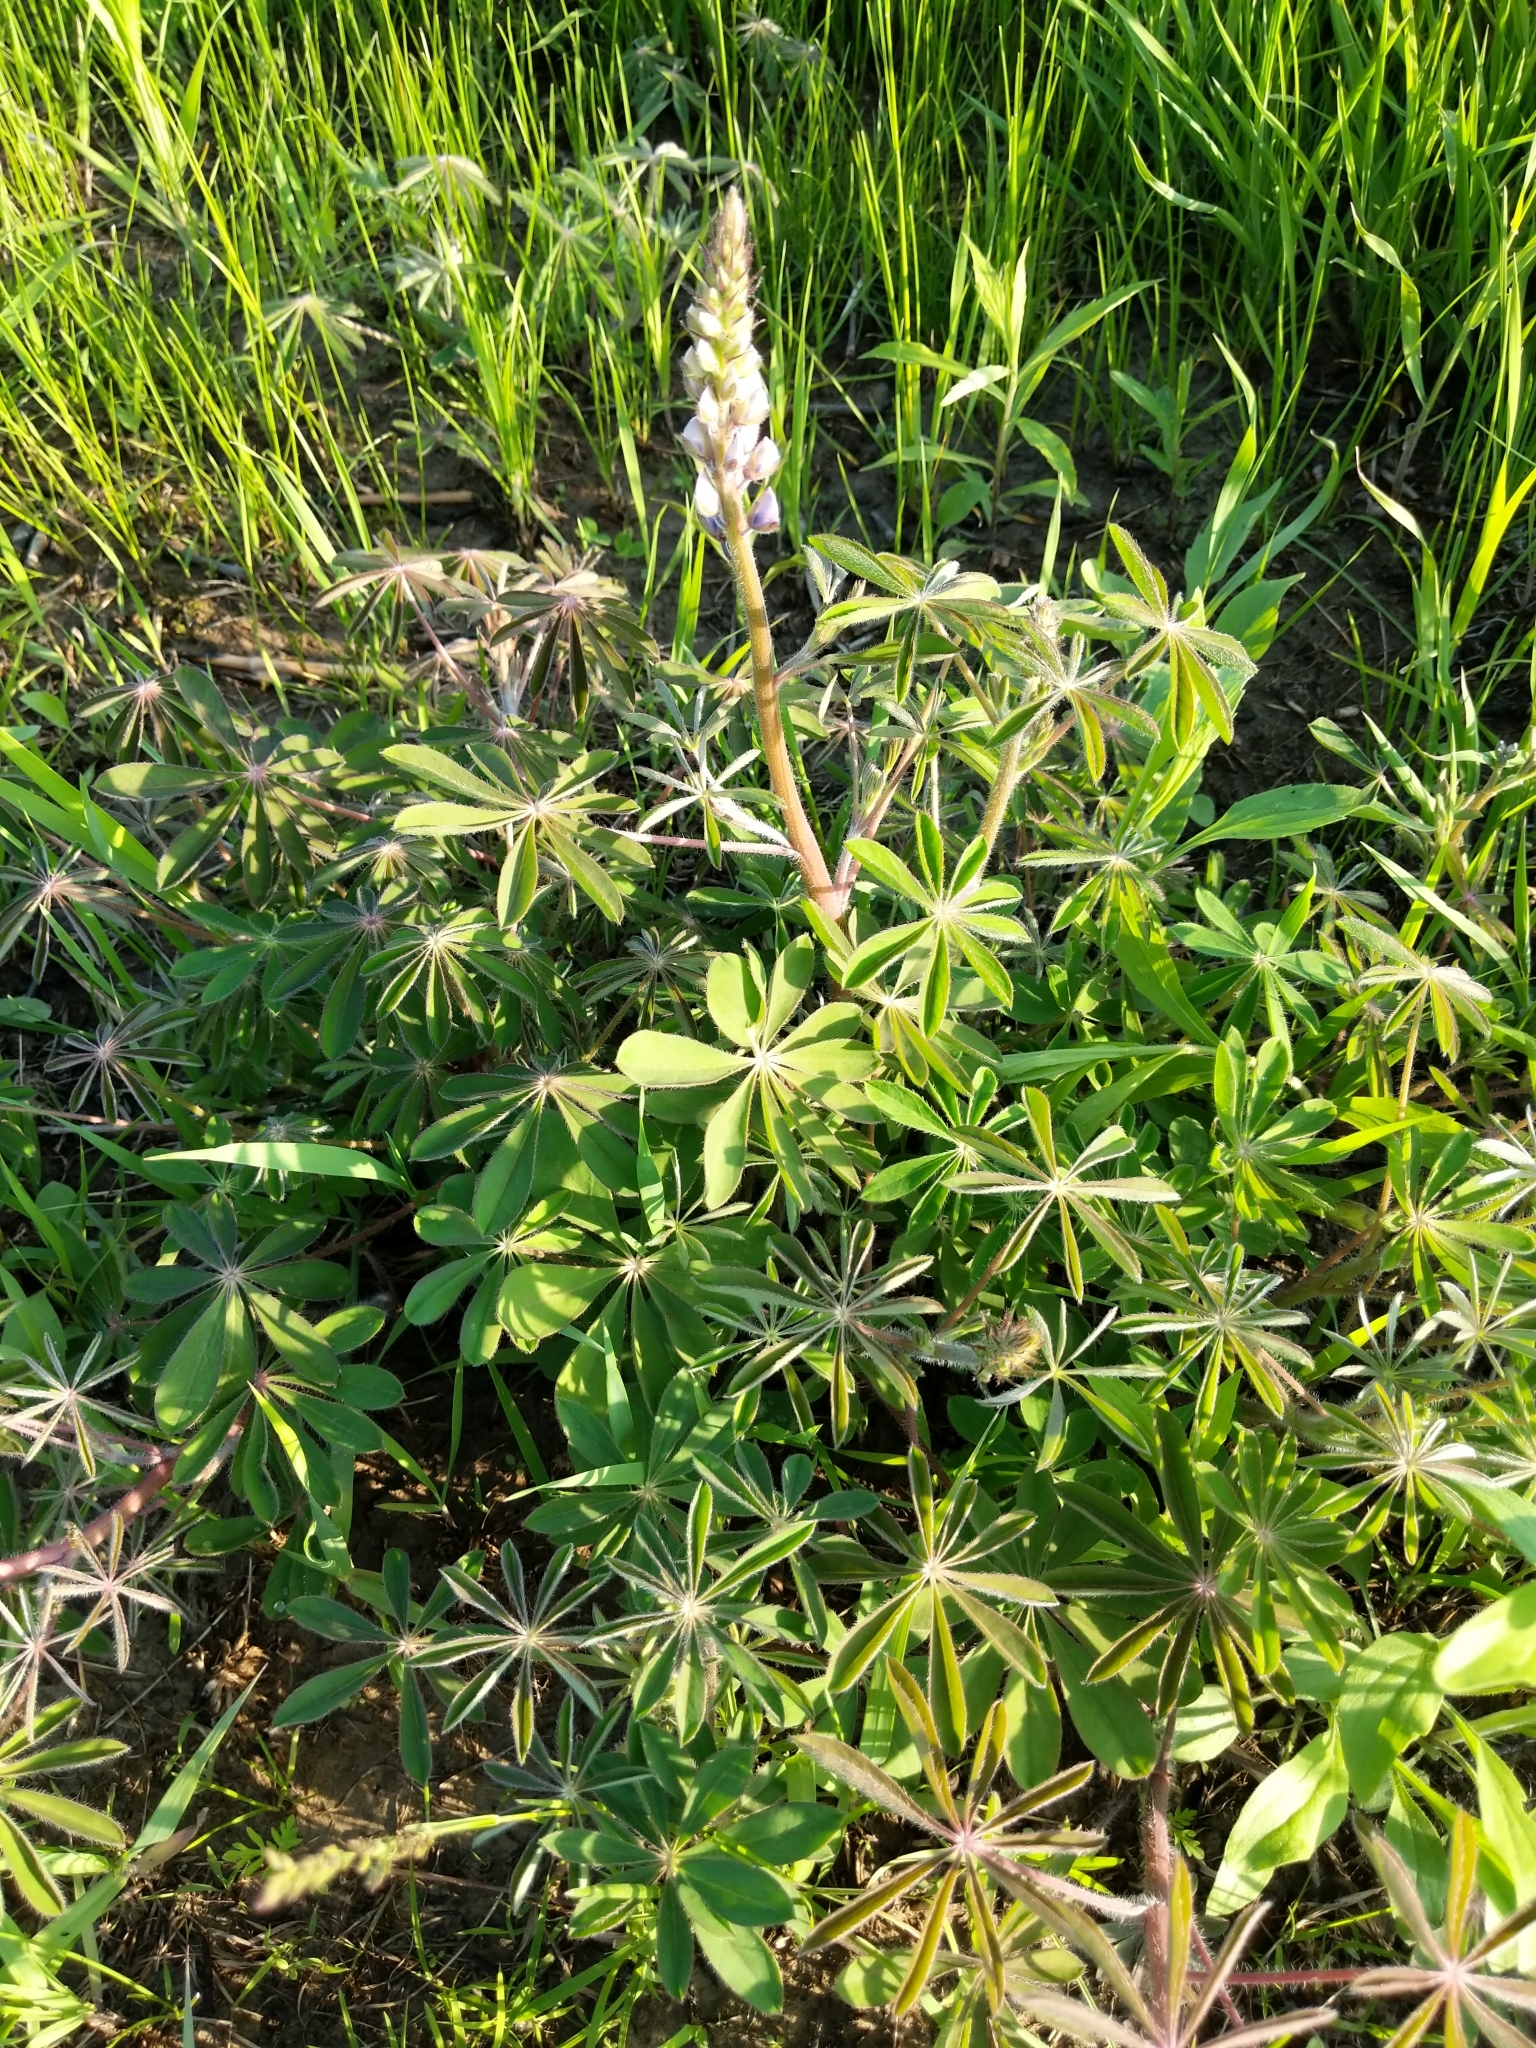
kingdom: Plantae
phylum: Tracheophyta
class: Magnoliopsida
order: Fabales
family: Fabaceae
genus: Lupinus
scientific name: Lupinus perennis
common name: Sundial lupine
